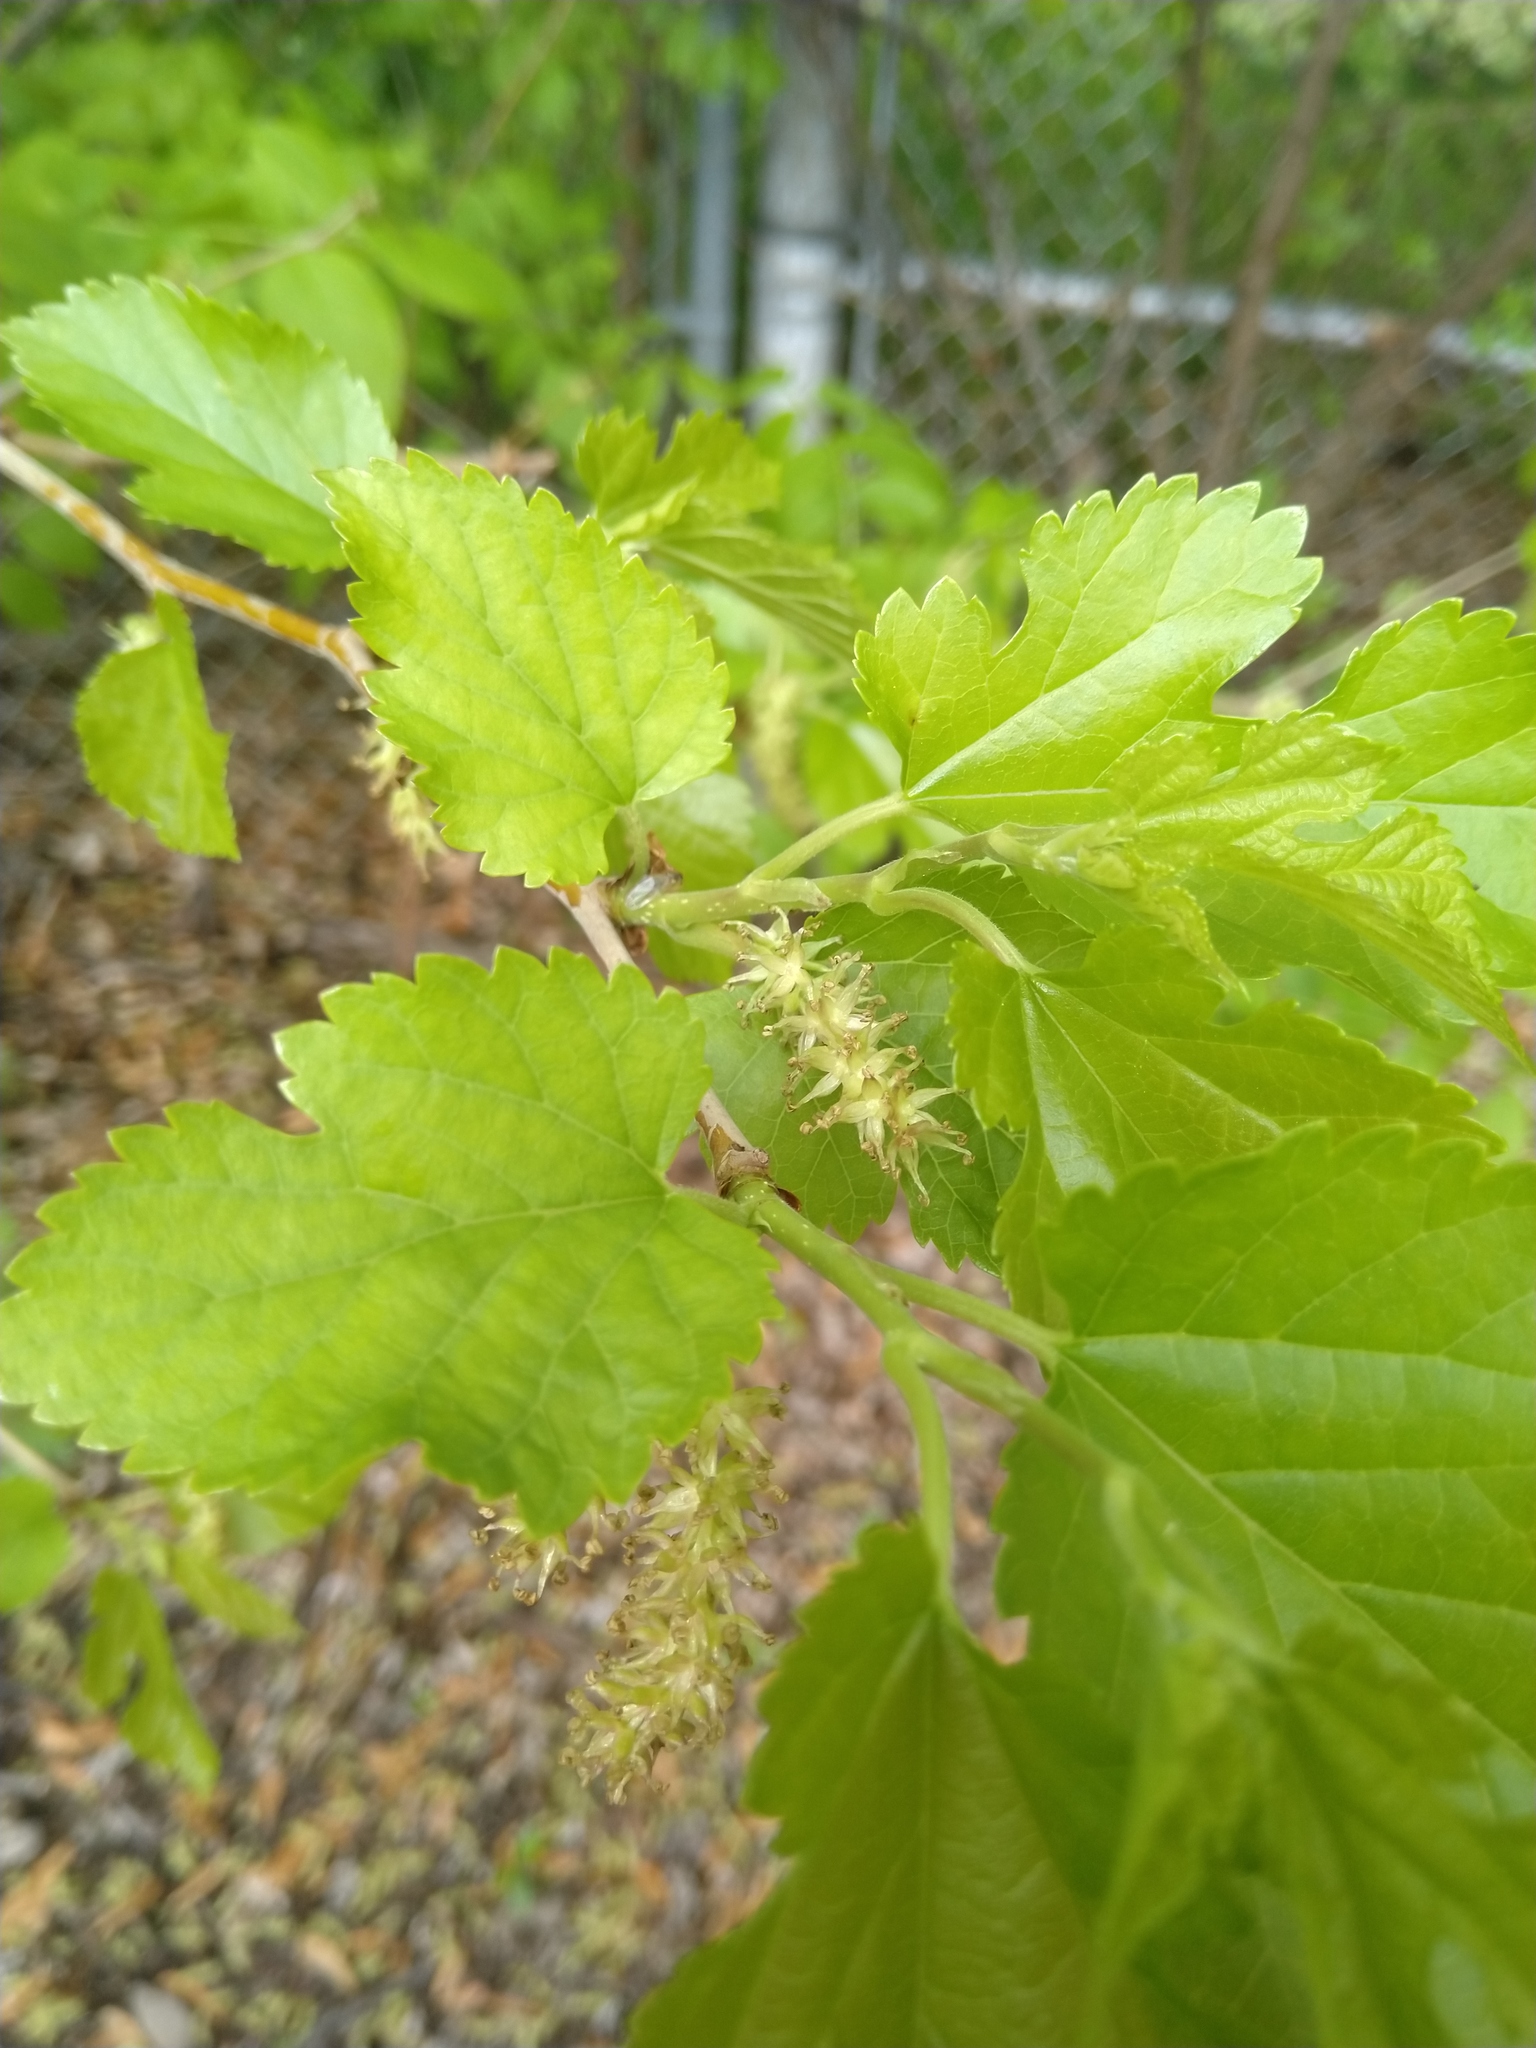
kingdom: Plantae
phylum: Tracheophyta
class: Magnoliopsida
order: Rosales
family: Moraceae
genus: Morus
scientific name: Morus alba
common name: White mulberry
